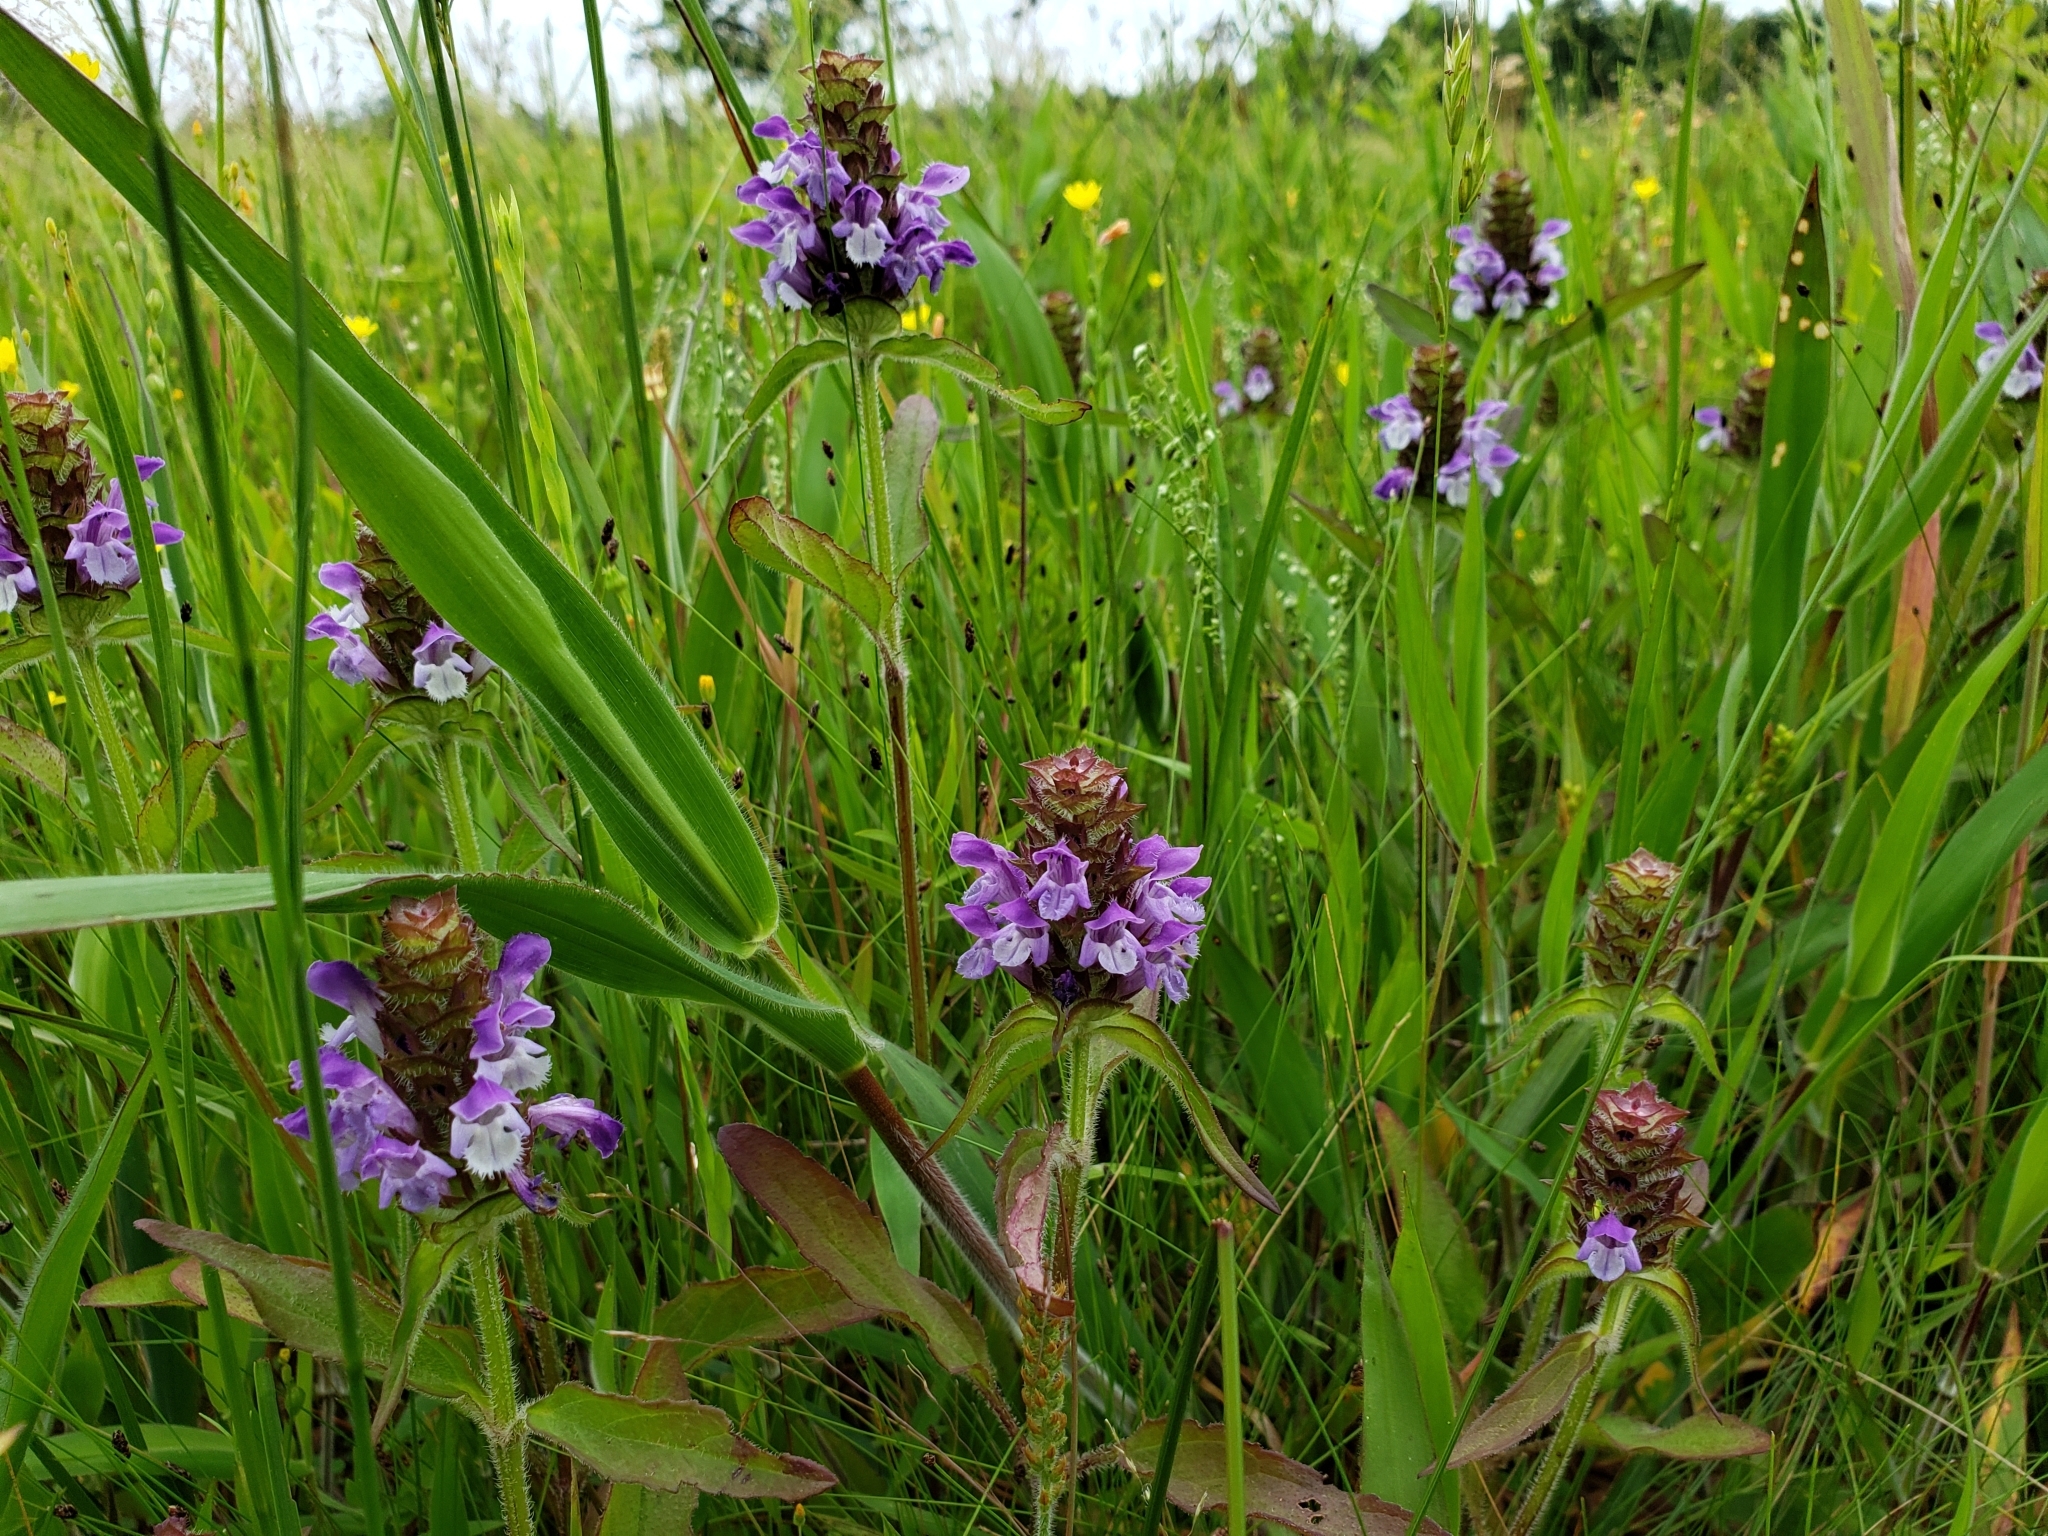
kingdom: Plantae
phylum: Tracheophyta
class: Magnoliopsida
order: Lamiales
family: Lamiaceae
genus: Prunella
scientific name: Prunella vulgaris
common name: Heal-all
